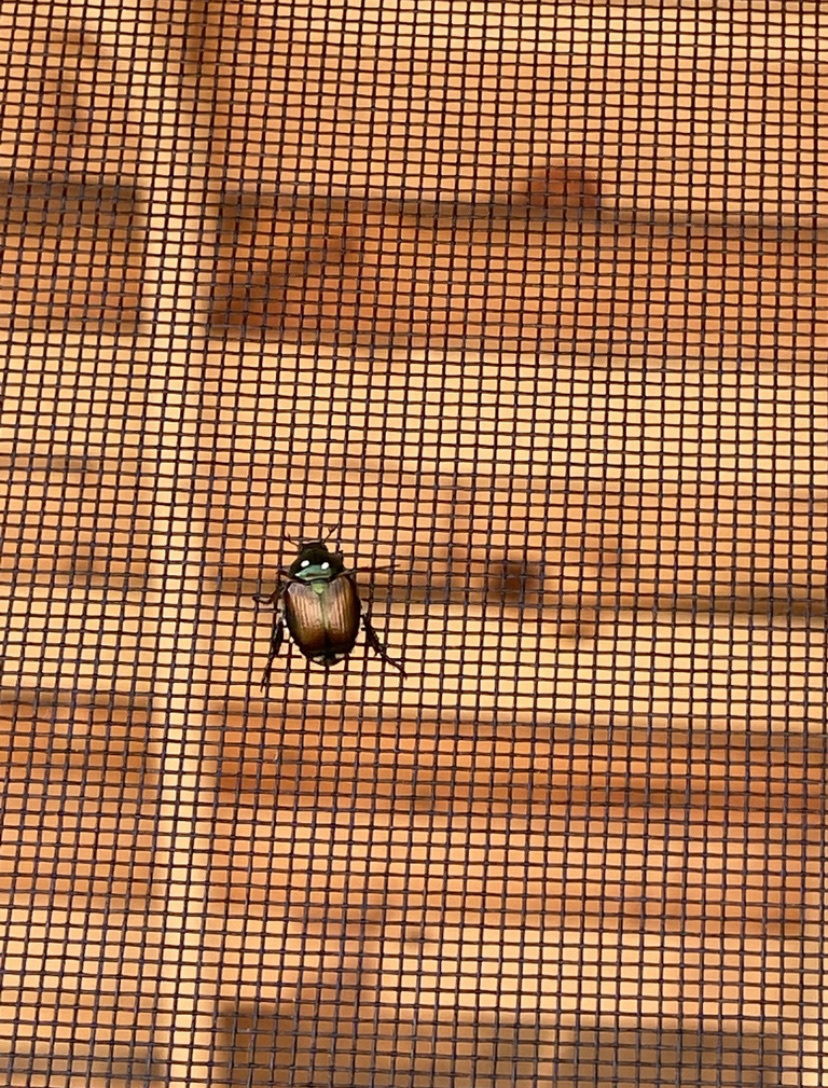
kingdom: Animalia
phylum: Arthropoda
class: Insecta
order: Diptera
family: Tachinidae
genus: Istocheta
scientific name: Istocheta aldrichi
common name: Parasitic wasp
